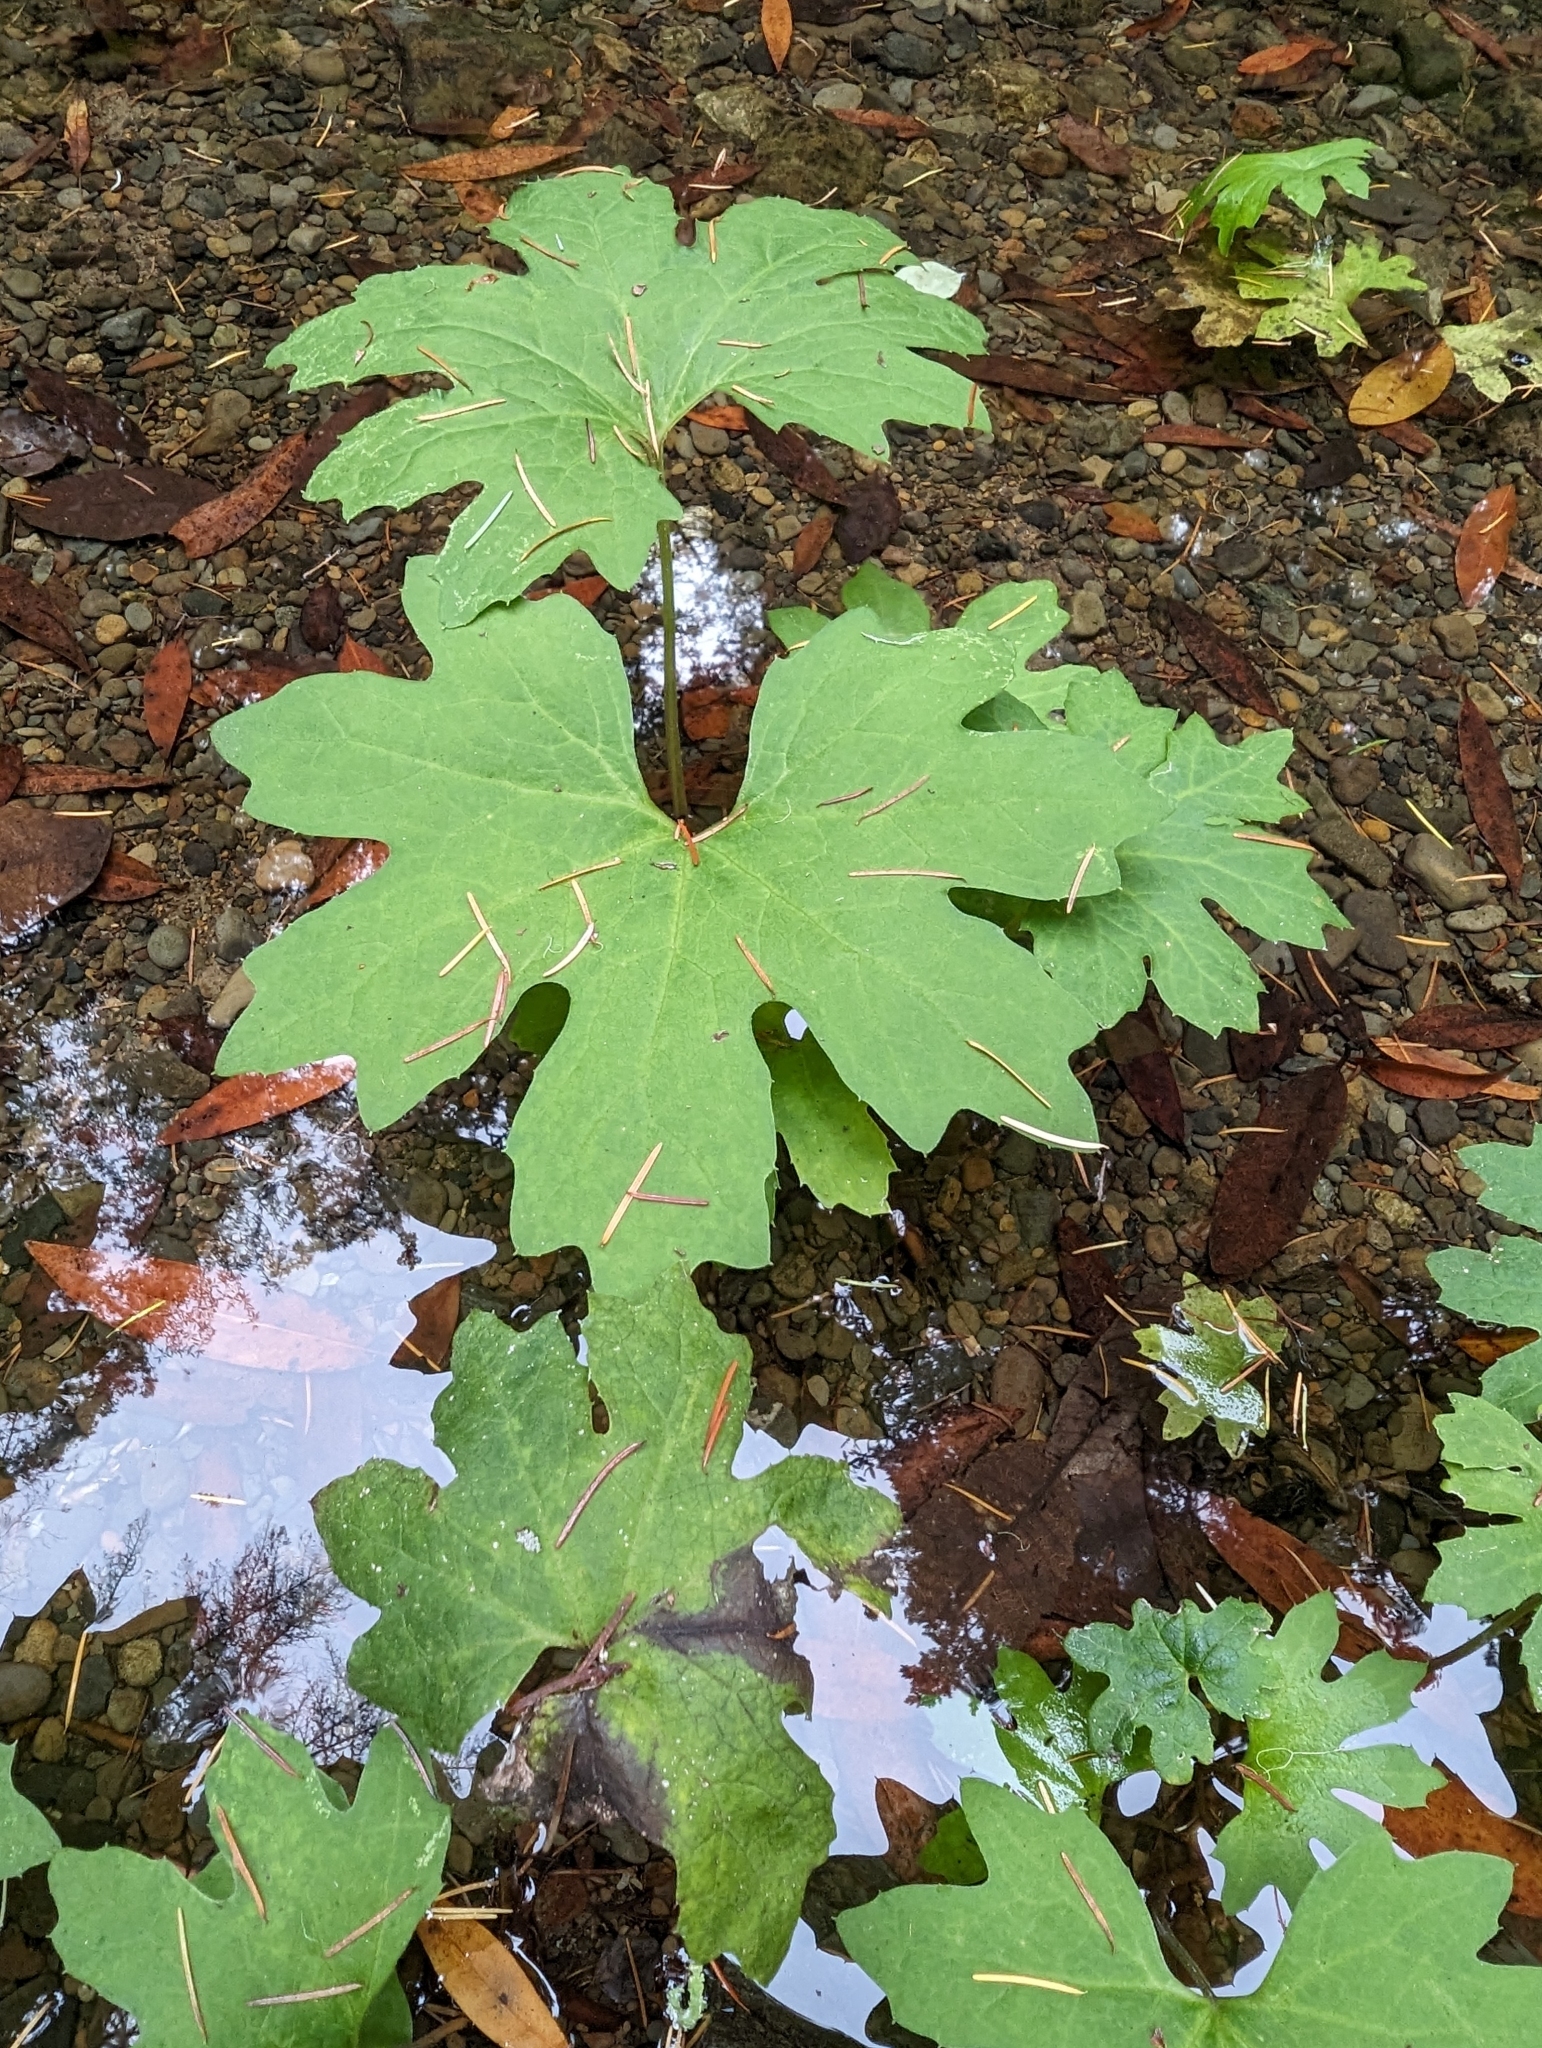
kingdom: Plantae
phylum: Tracheophyta
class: Magnoliopsida
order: Asterales
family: Asteraceae
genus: Petasites
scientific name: Petasites frigidus
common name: Arctic butterbur
